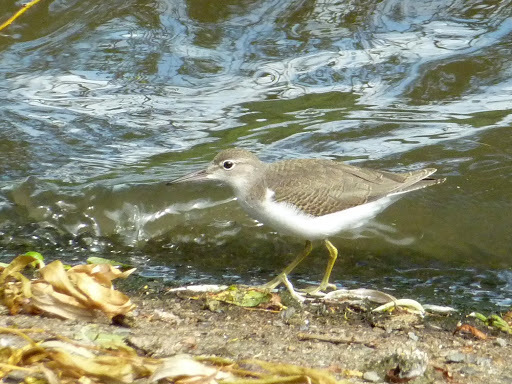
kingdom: Animalia
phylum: Chordata
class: Aves
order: Charadriiformes
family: Scolopacidae
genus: Actitis
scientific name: Actitis macularius
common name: Spotted sandpiper
